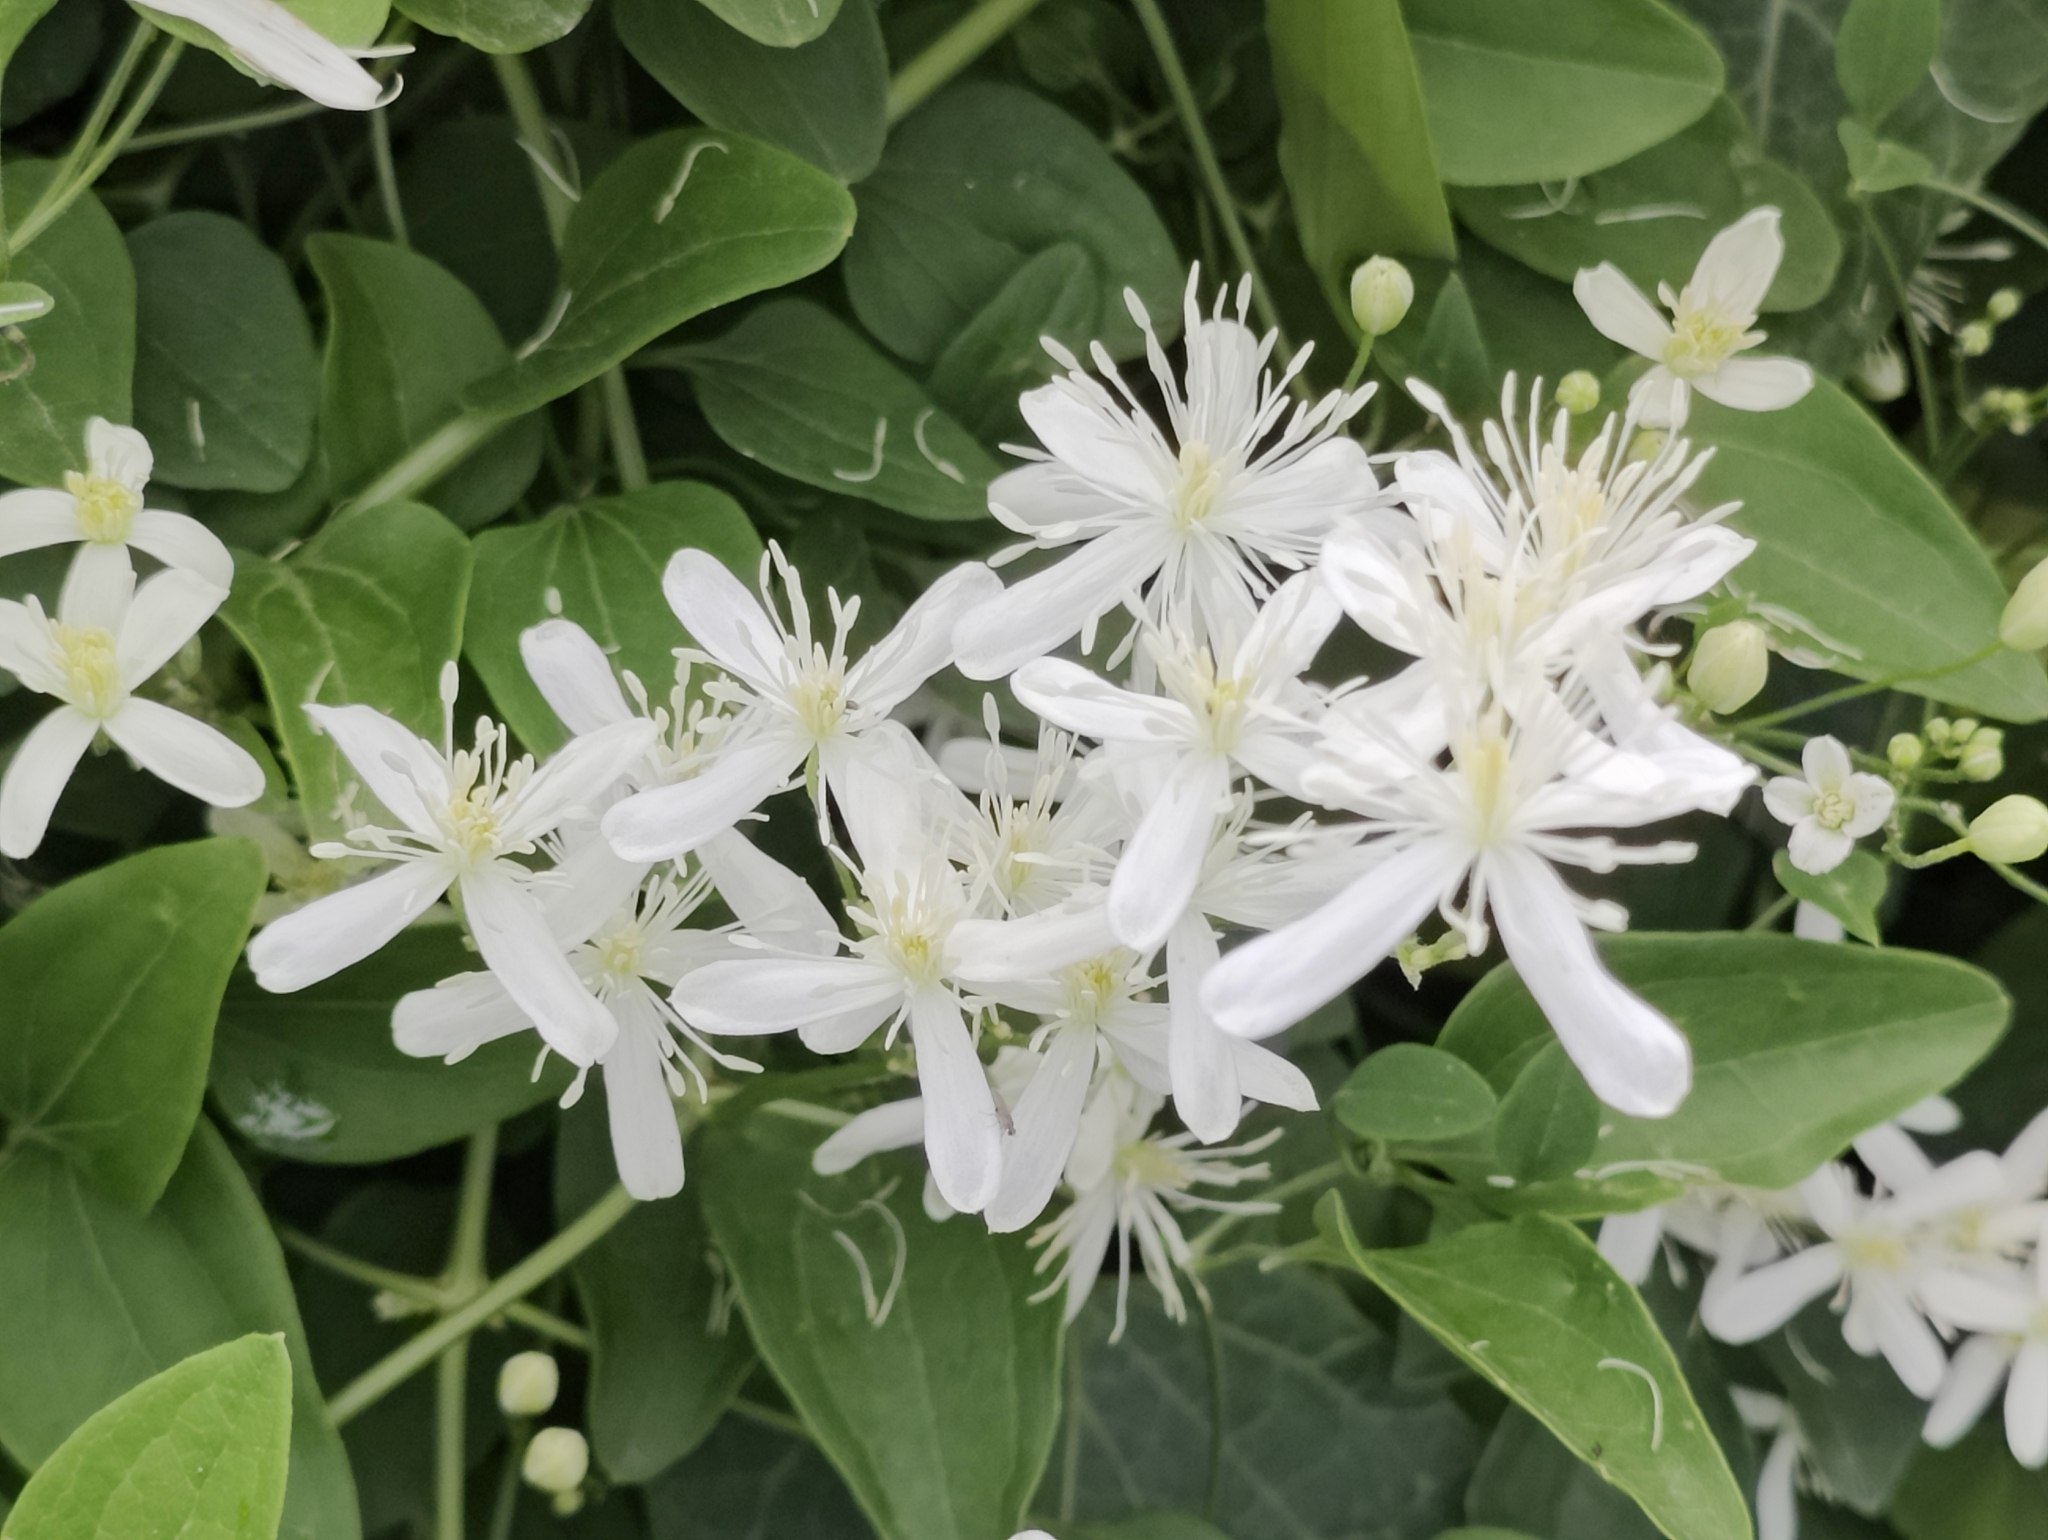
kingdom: Plantae
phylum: Tracheophyta
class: Magnoliopsida
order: Ranunculales
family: Ranunculaceae
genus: Clematis
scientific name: Clematis terniflora
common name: Sweet autumn clematis
